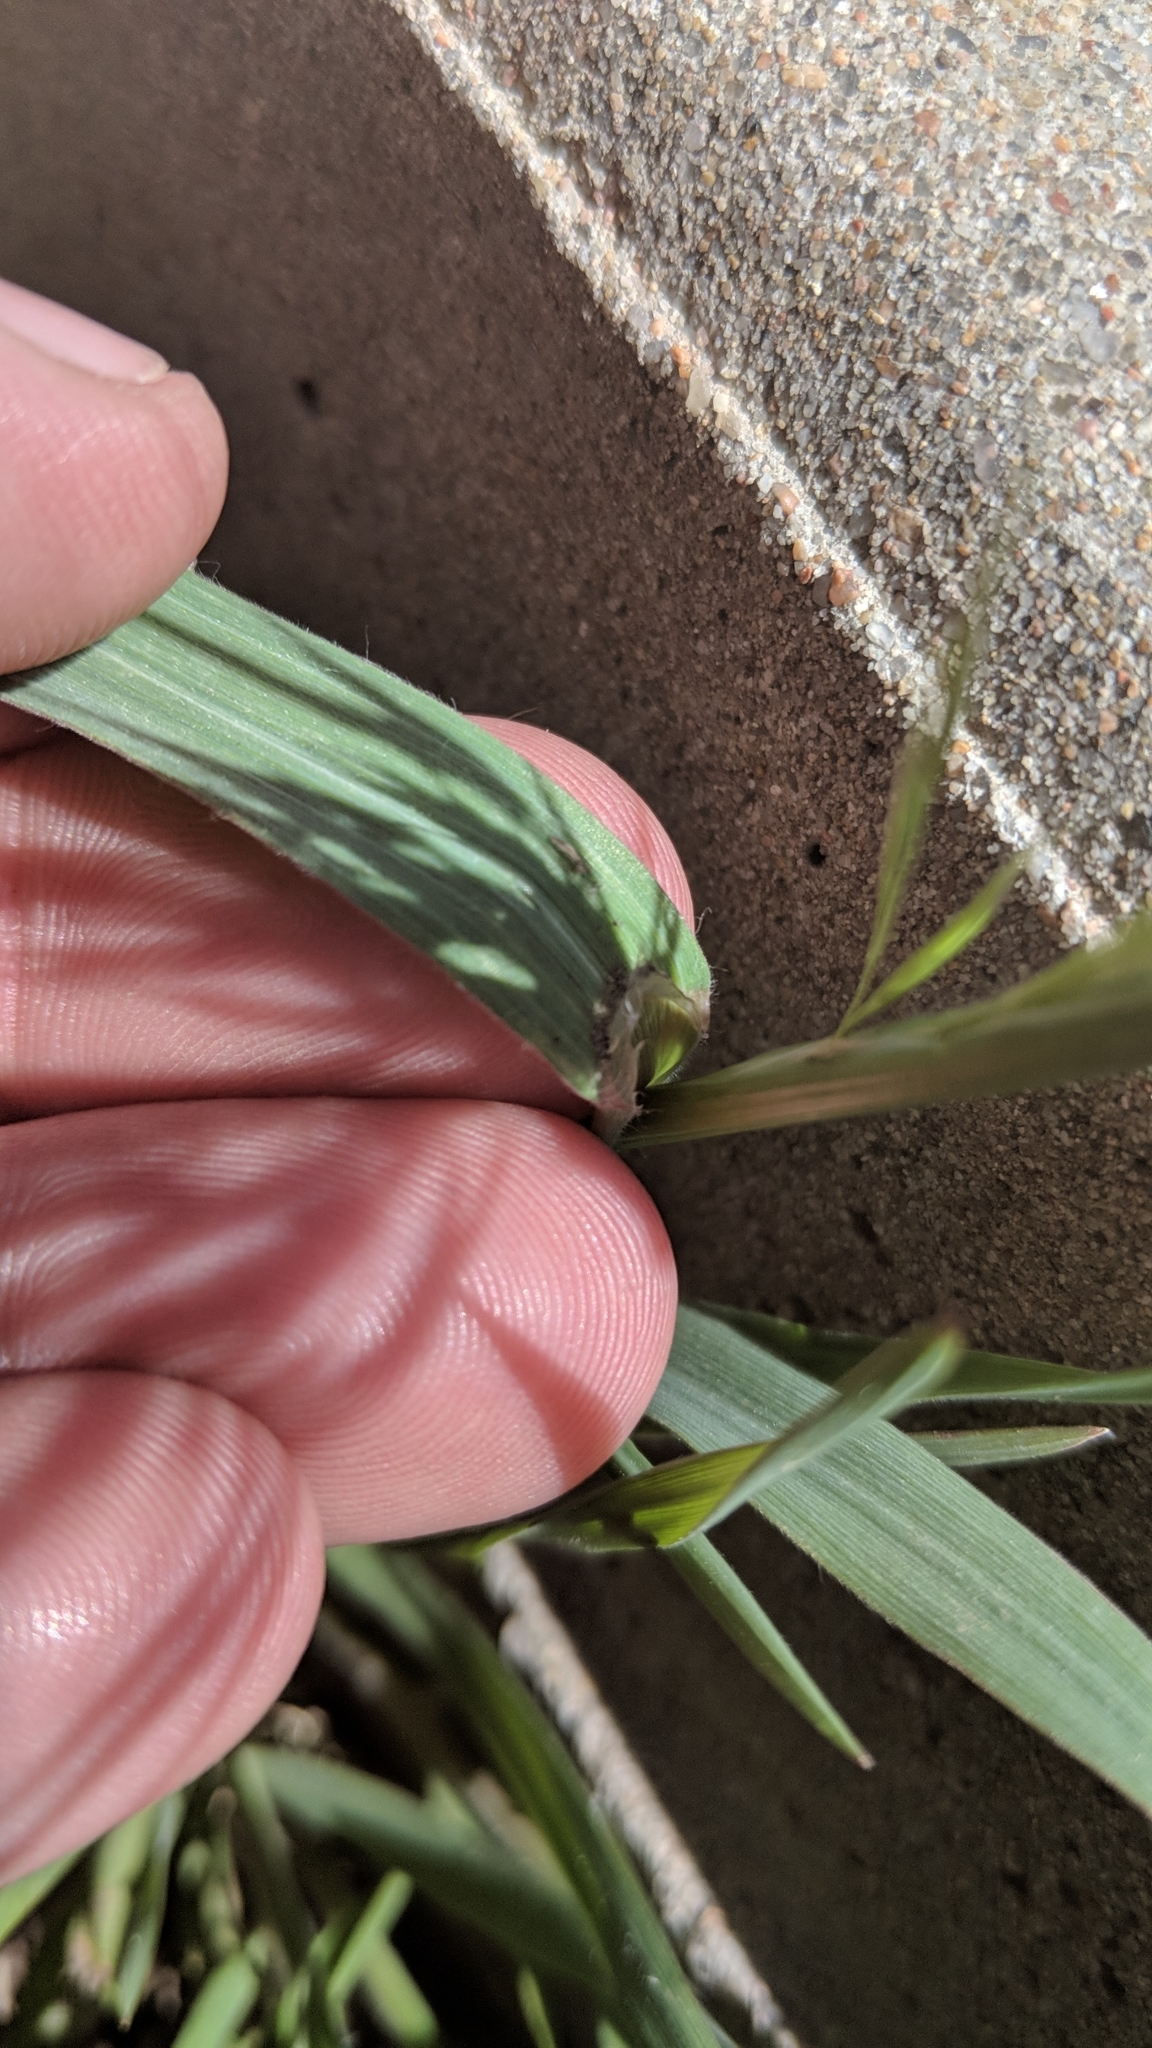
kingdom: Plantae
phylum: Tracheophyta
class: Liliopsida
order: Poales
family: Poaceae
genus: Bromus
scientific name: Bromus tectorum
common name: Cheatgrass
